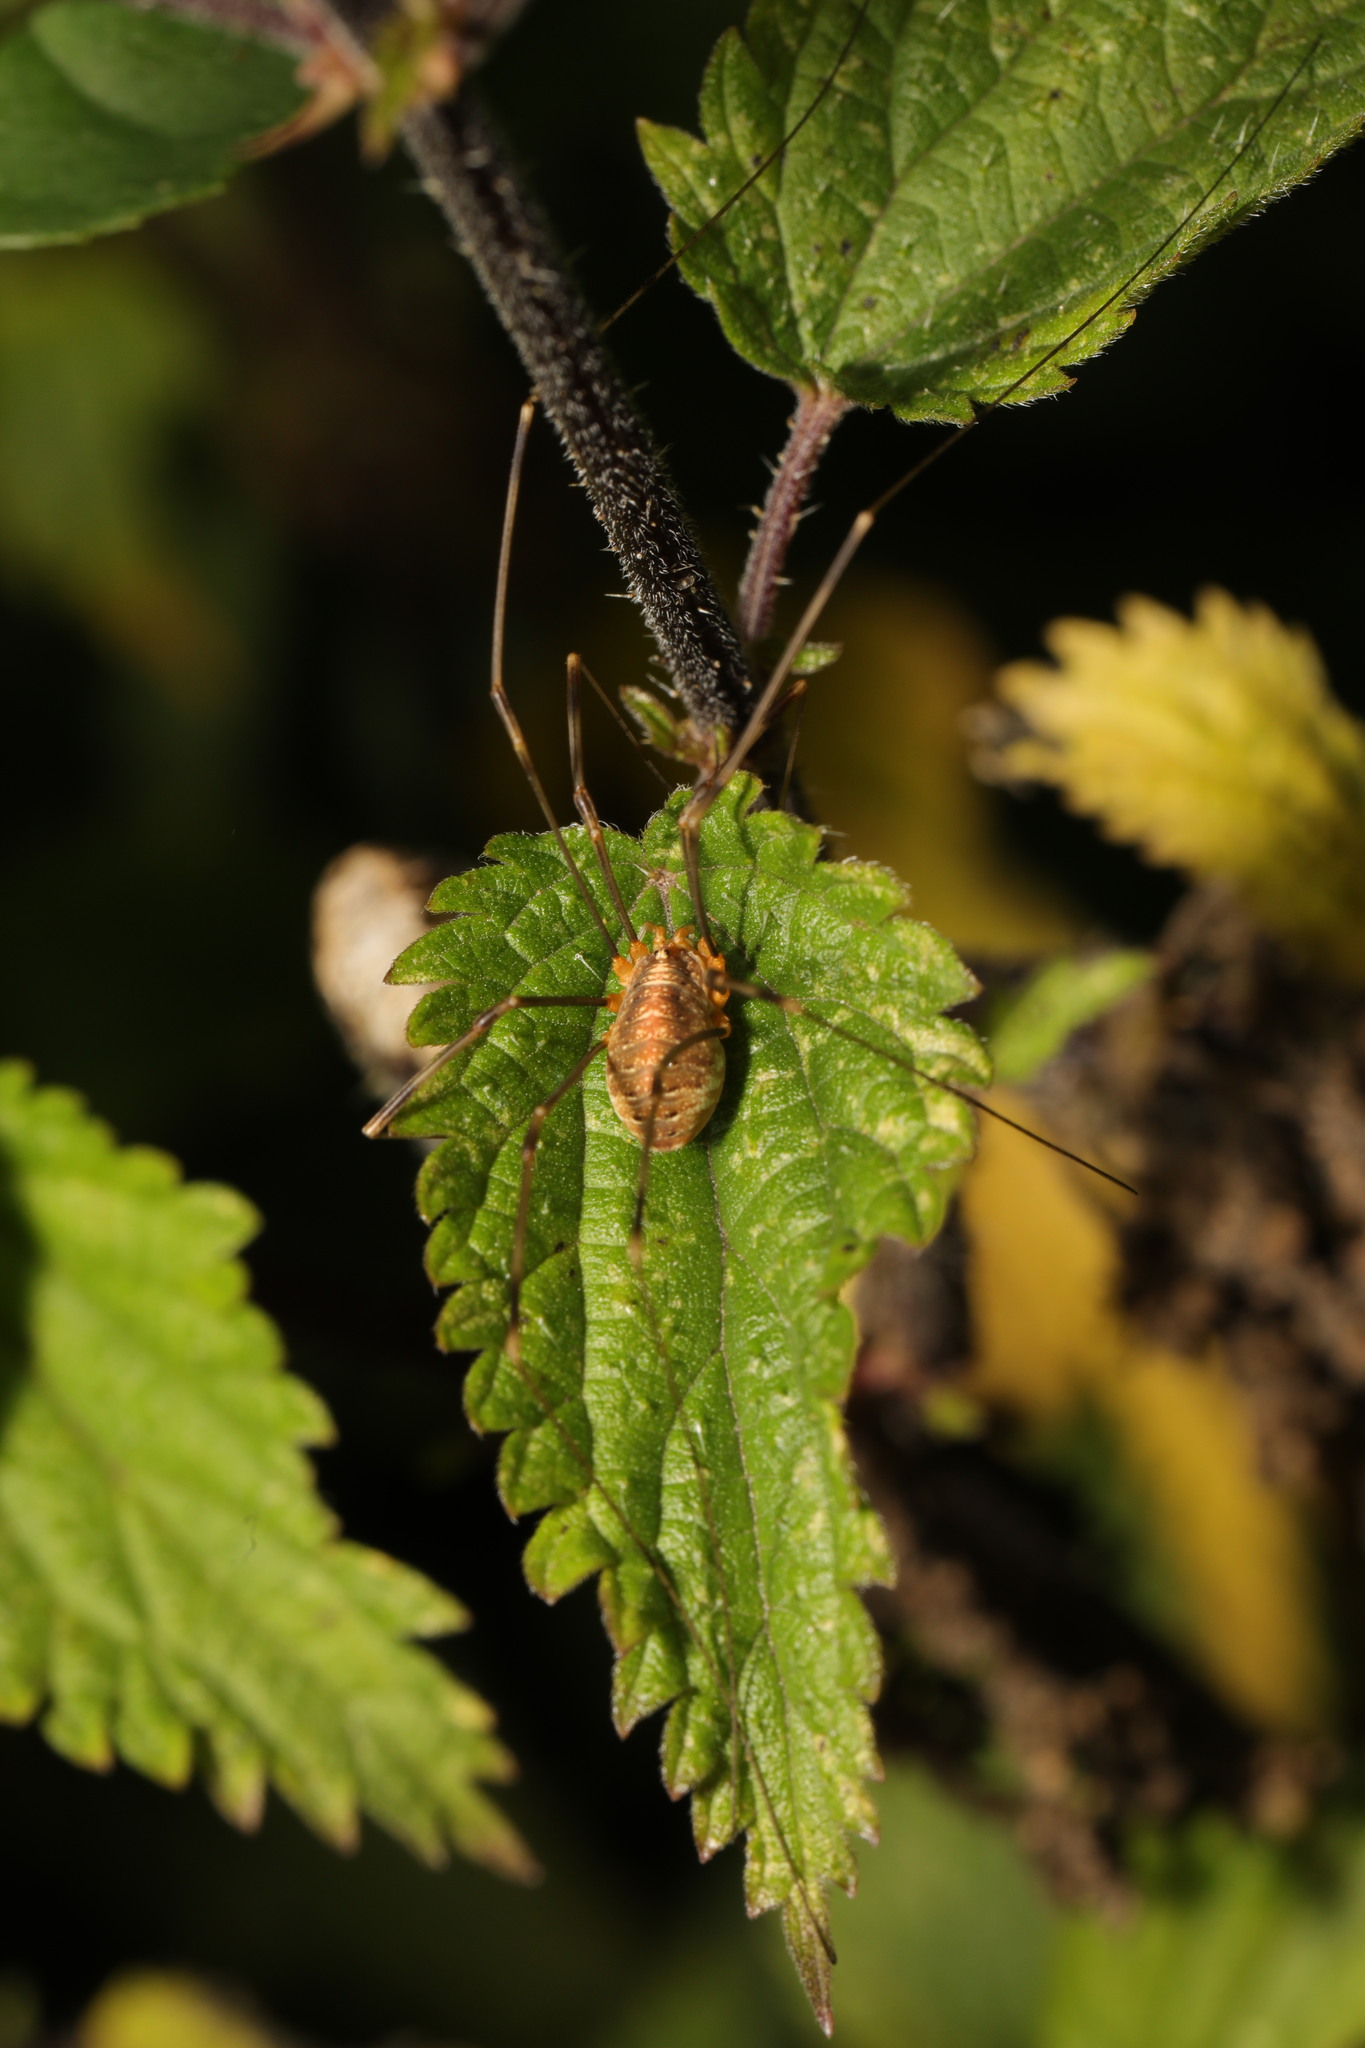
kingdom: Animalia
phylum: Arthropoda
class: Arachnida
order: Opiliones
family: Phalangiidae
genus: Opilio
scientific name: Opilio canestrinii
